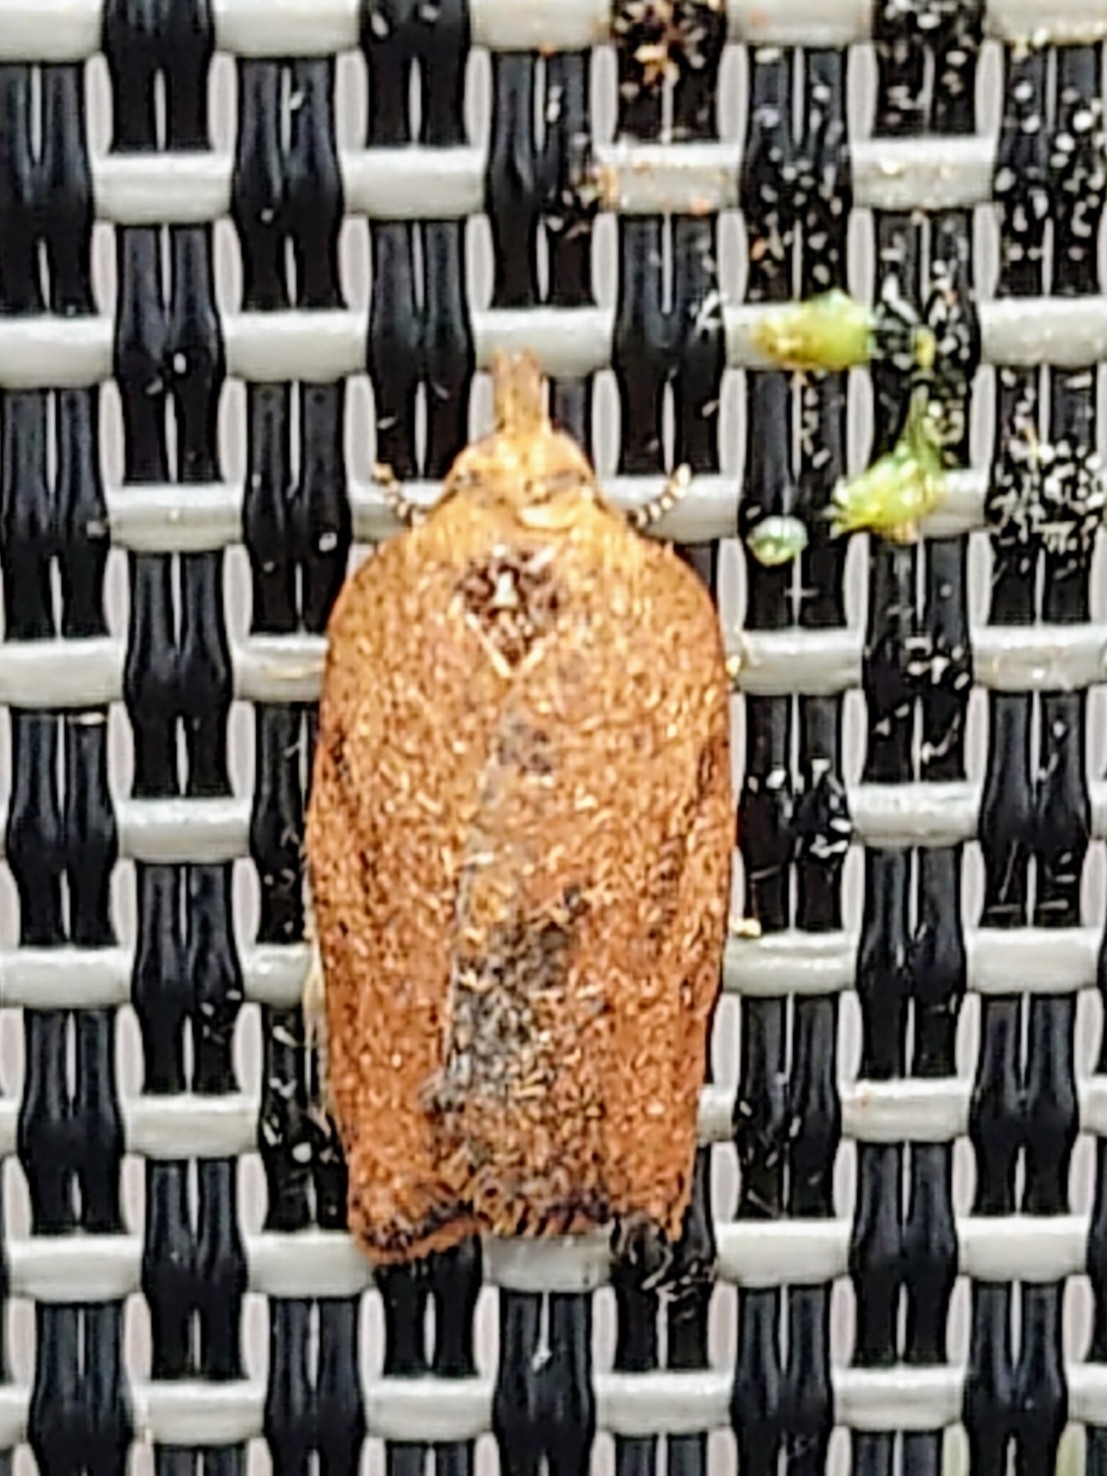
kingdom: Animalia
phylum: Arthropoda
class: Insecta
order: Lepidoptera
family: Tortricidae
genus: Epiphyas
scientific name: Epiphyas postvittana
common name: Light brown apple moth
